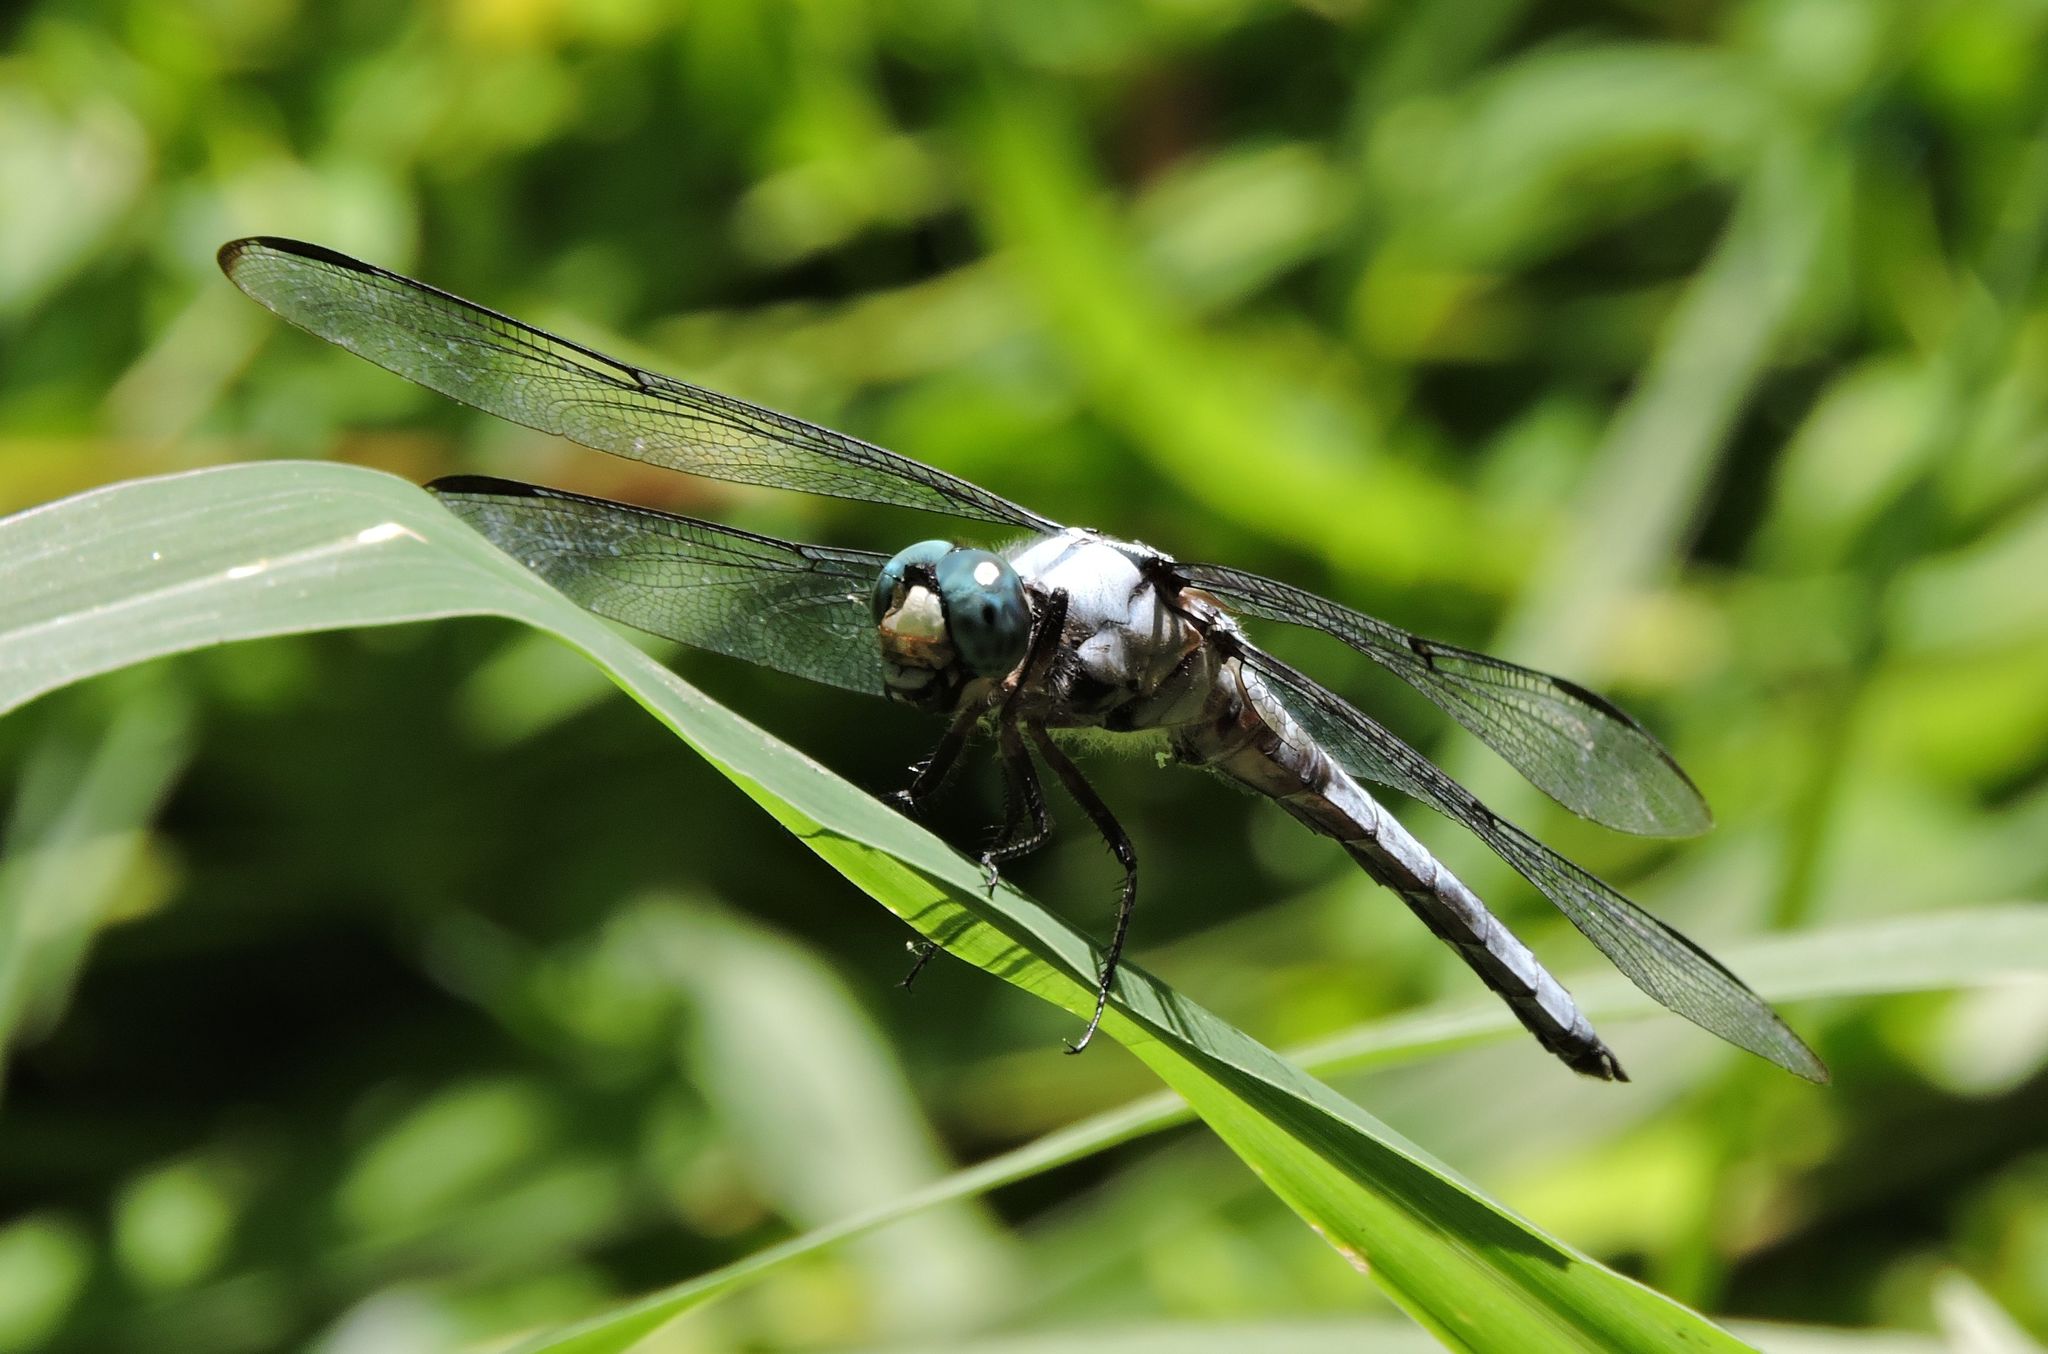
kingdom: Animalia
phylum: Arthropoda
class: Insecta
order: Odonata
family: Libellulidae
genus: Libellula
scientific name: Libellula vibrans
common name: Great blue skimmer
